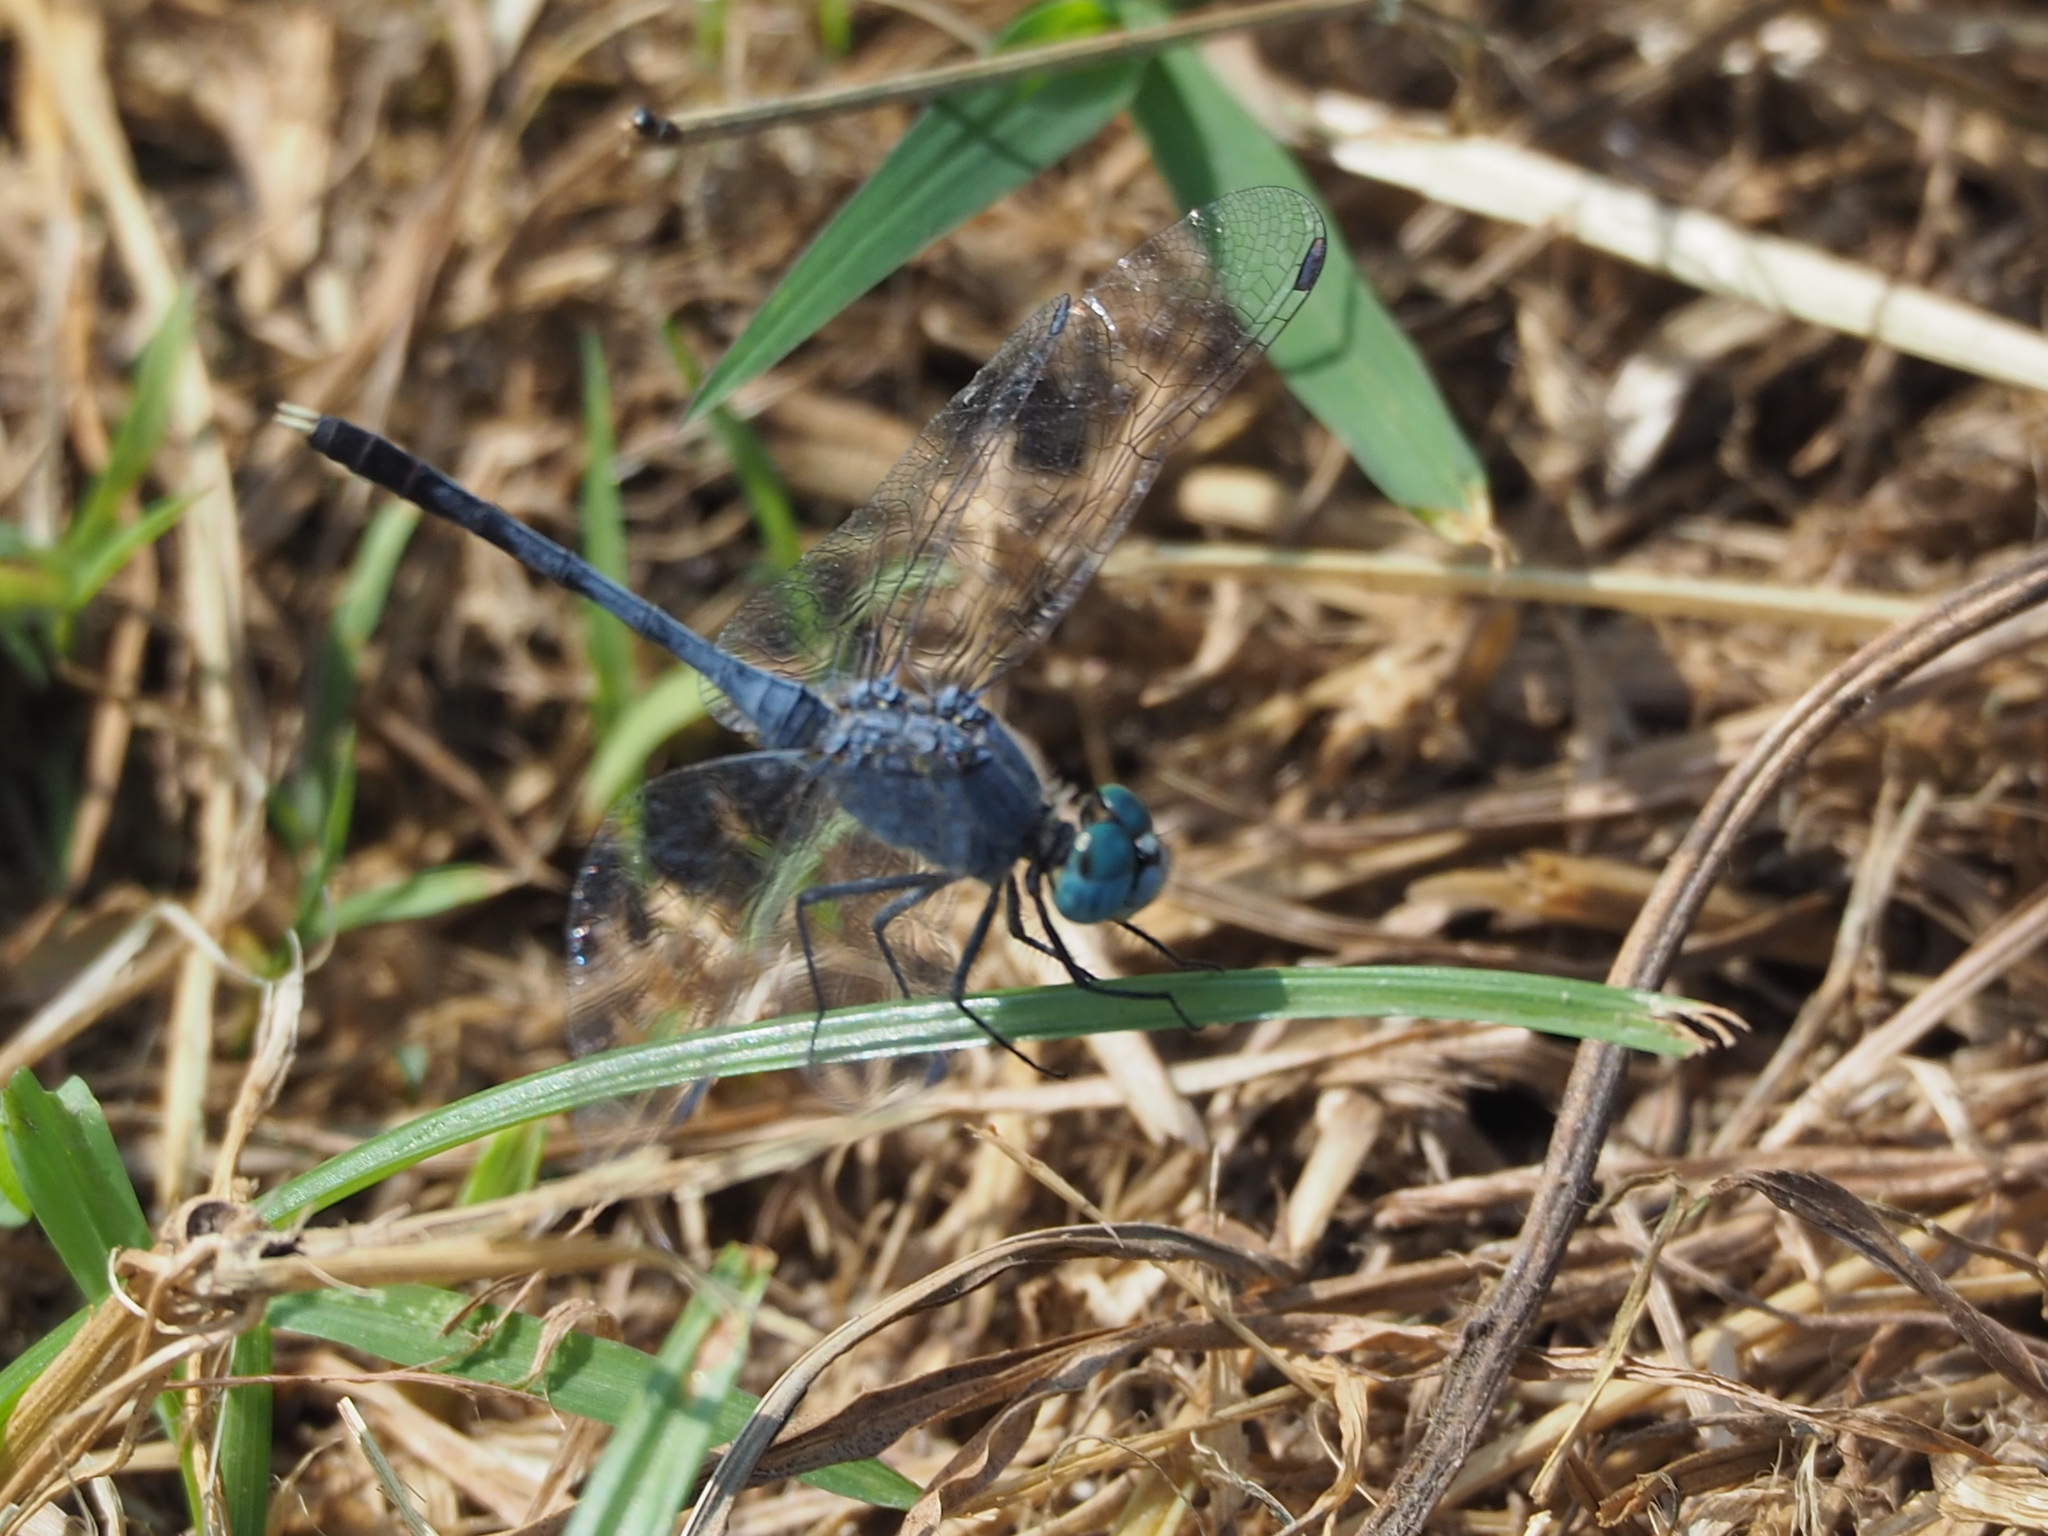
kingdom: Animalia
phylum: Arthropoda
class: Insecta
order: Odonata
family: Libellulidae
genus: Diplacodes
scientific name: Diplacodes trivialis
